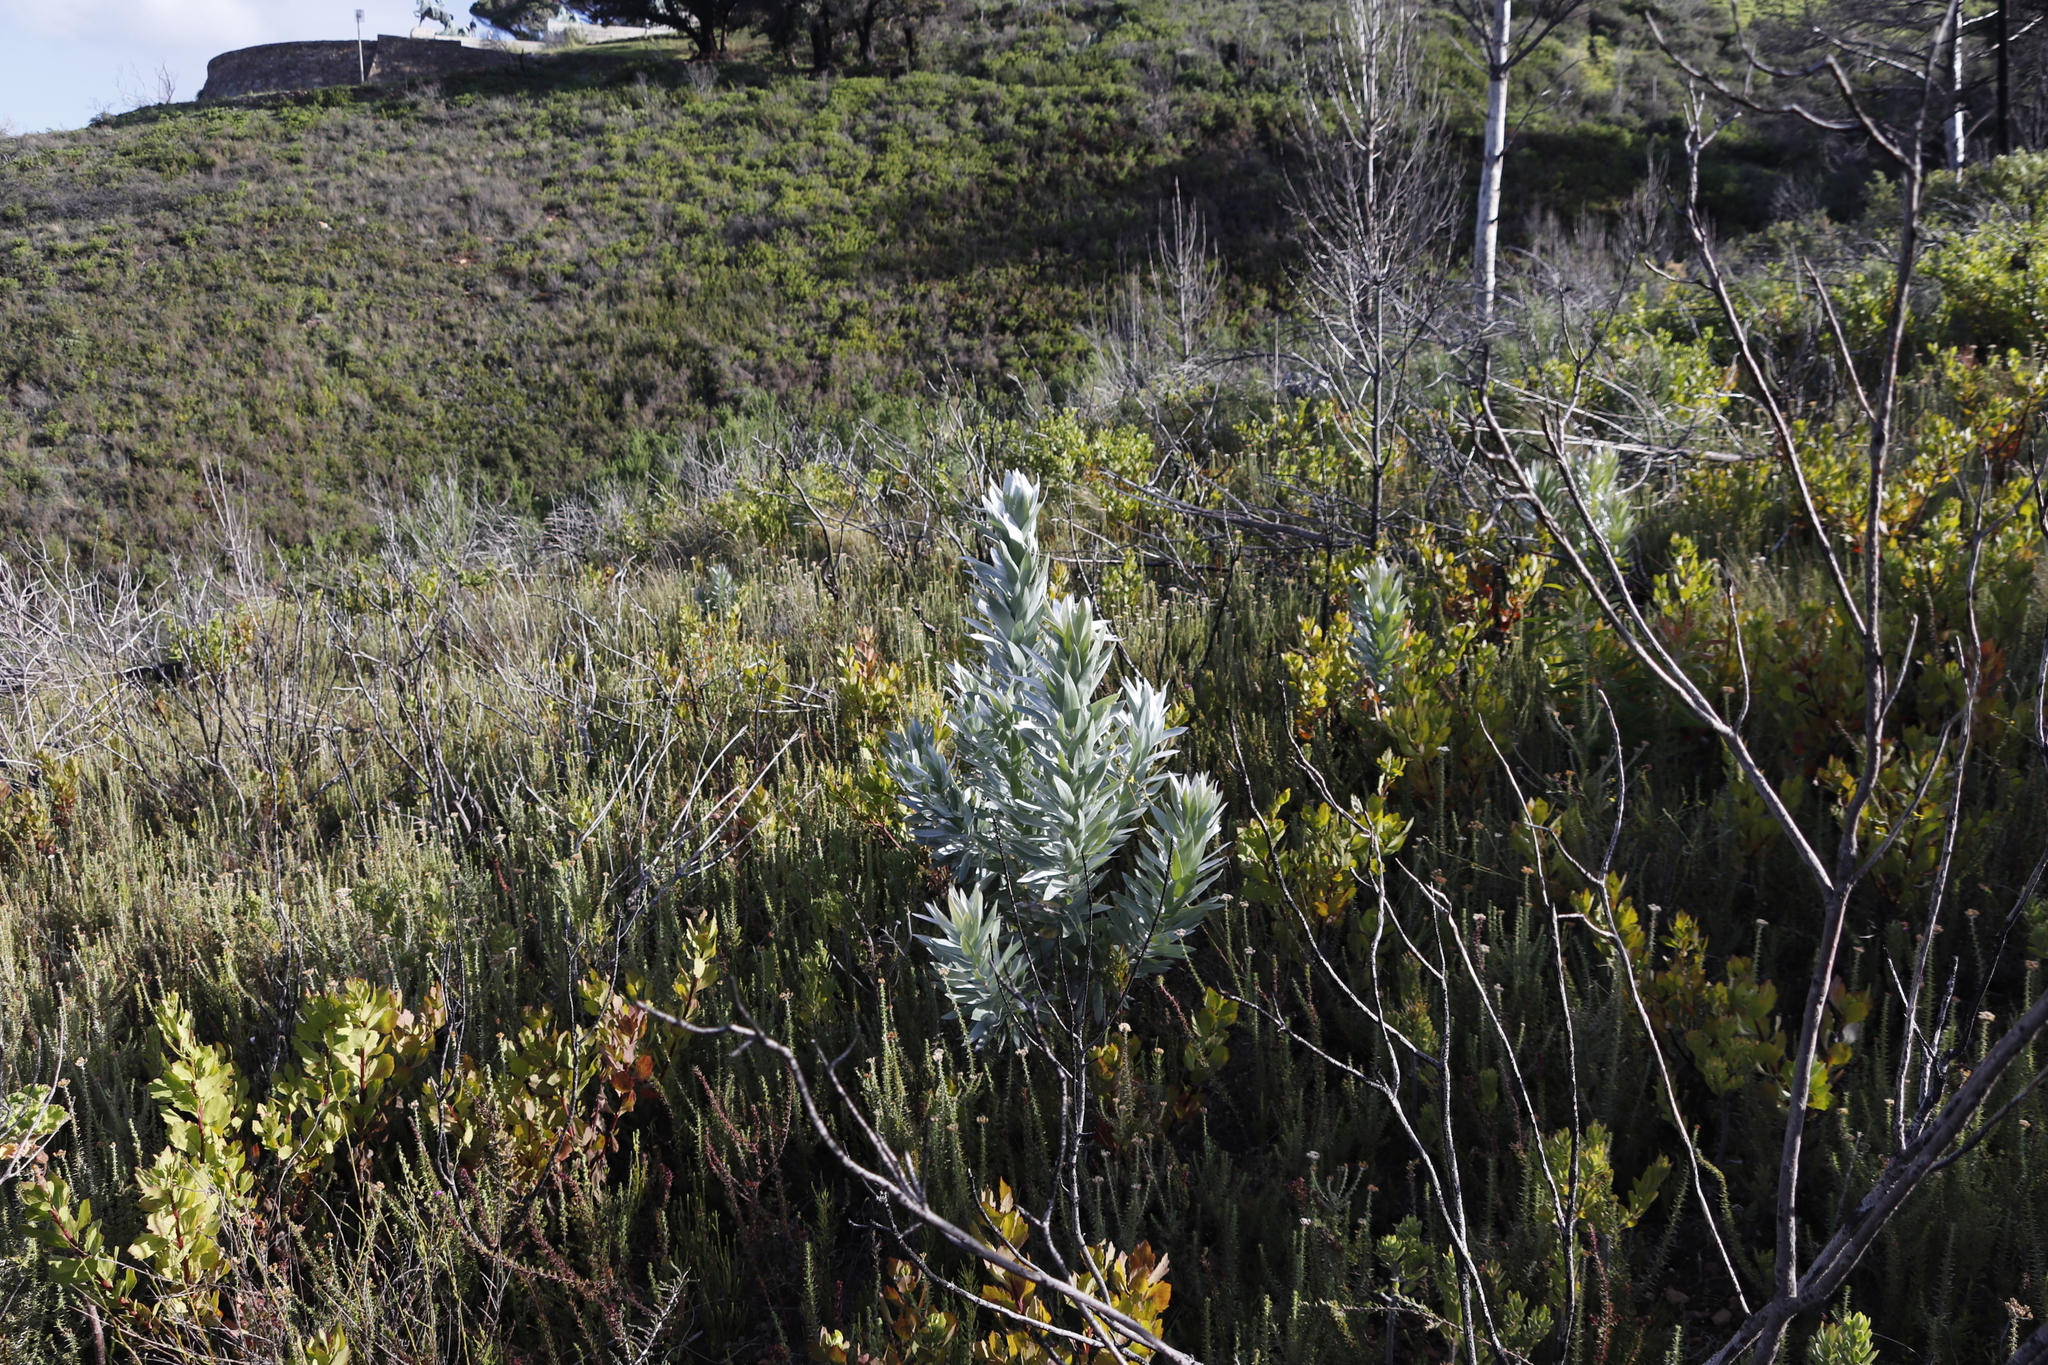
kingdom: Plantae
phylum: Tracheophyta
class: Magnoliopsida
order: Proteales
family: Proteaceae
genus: Leucadendron
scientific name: Leucadendron argenteum
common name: Cape silver tree
